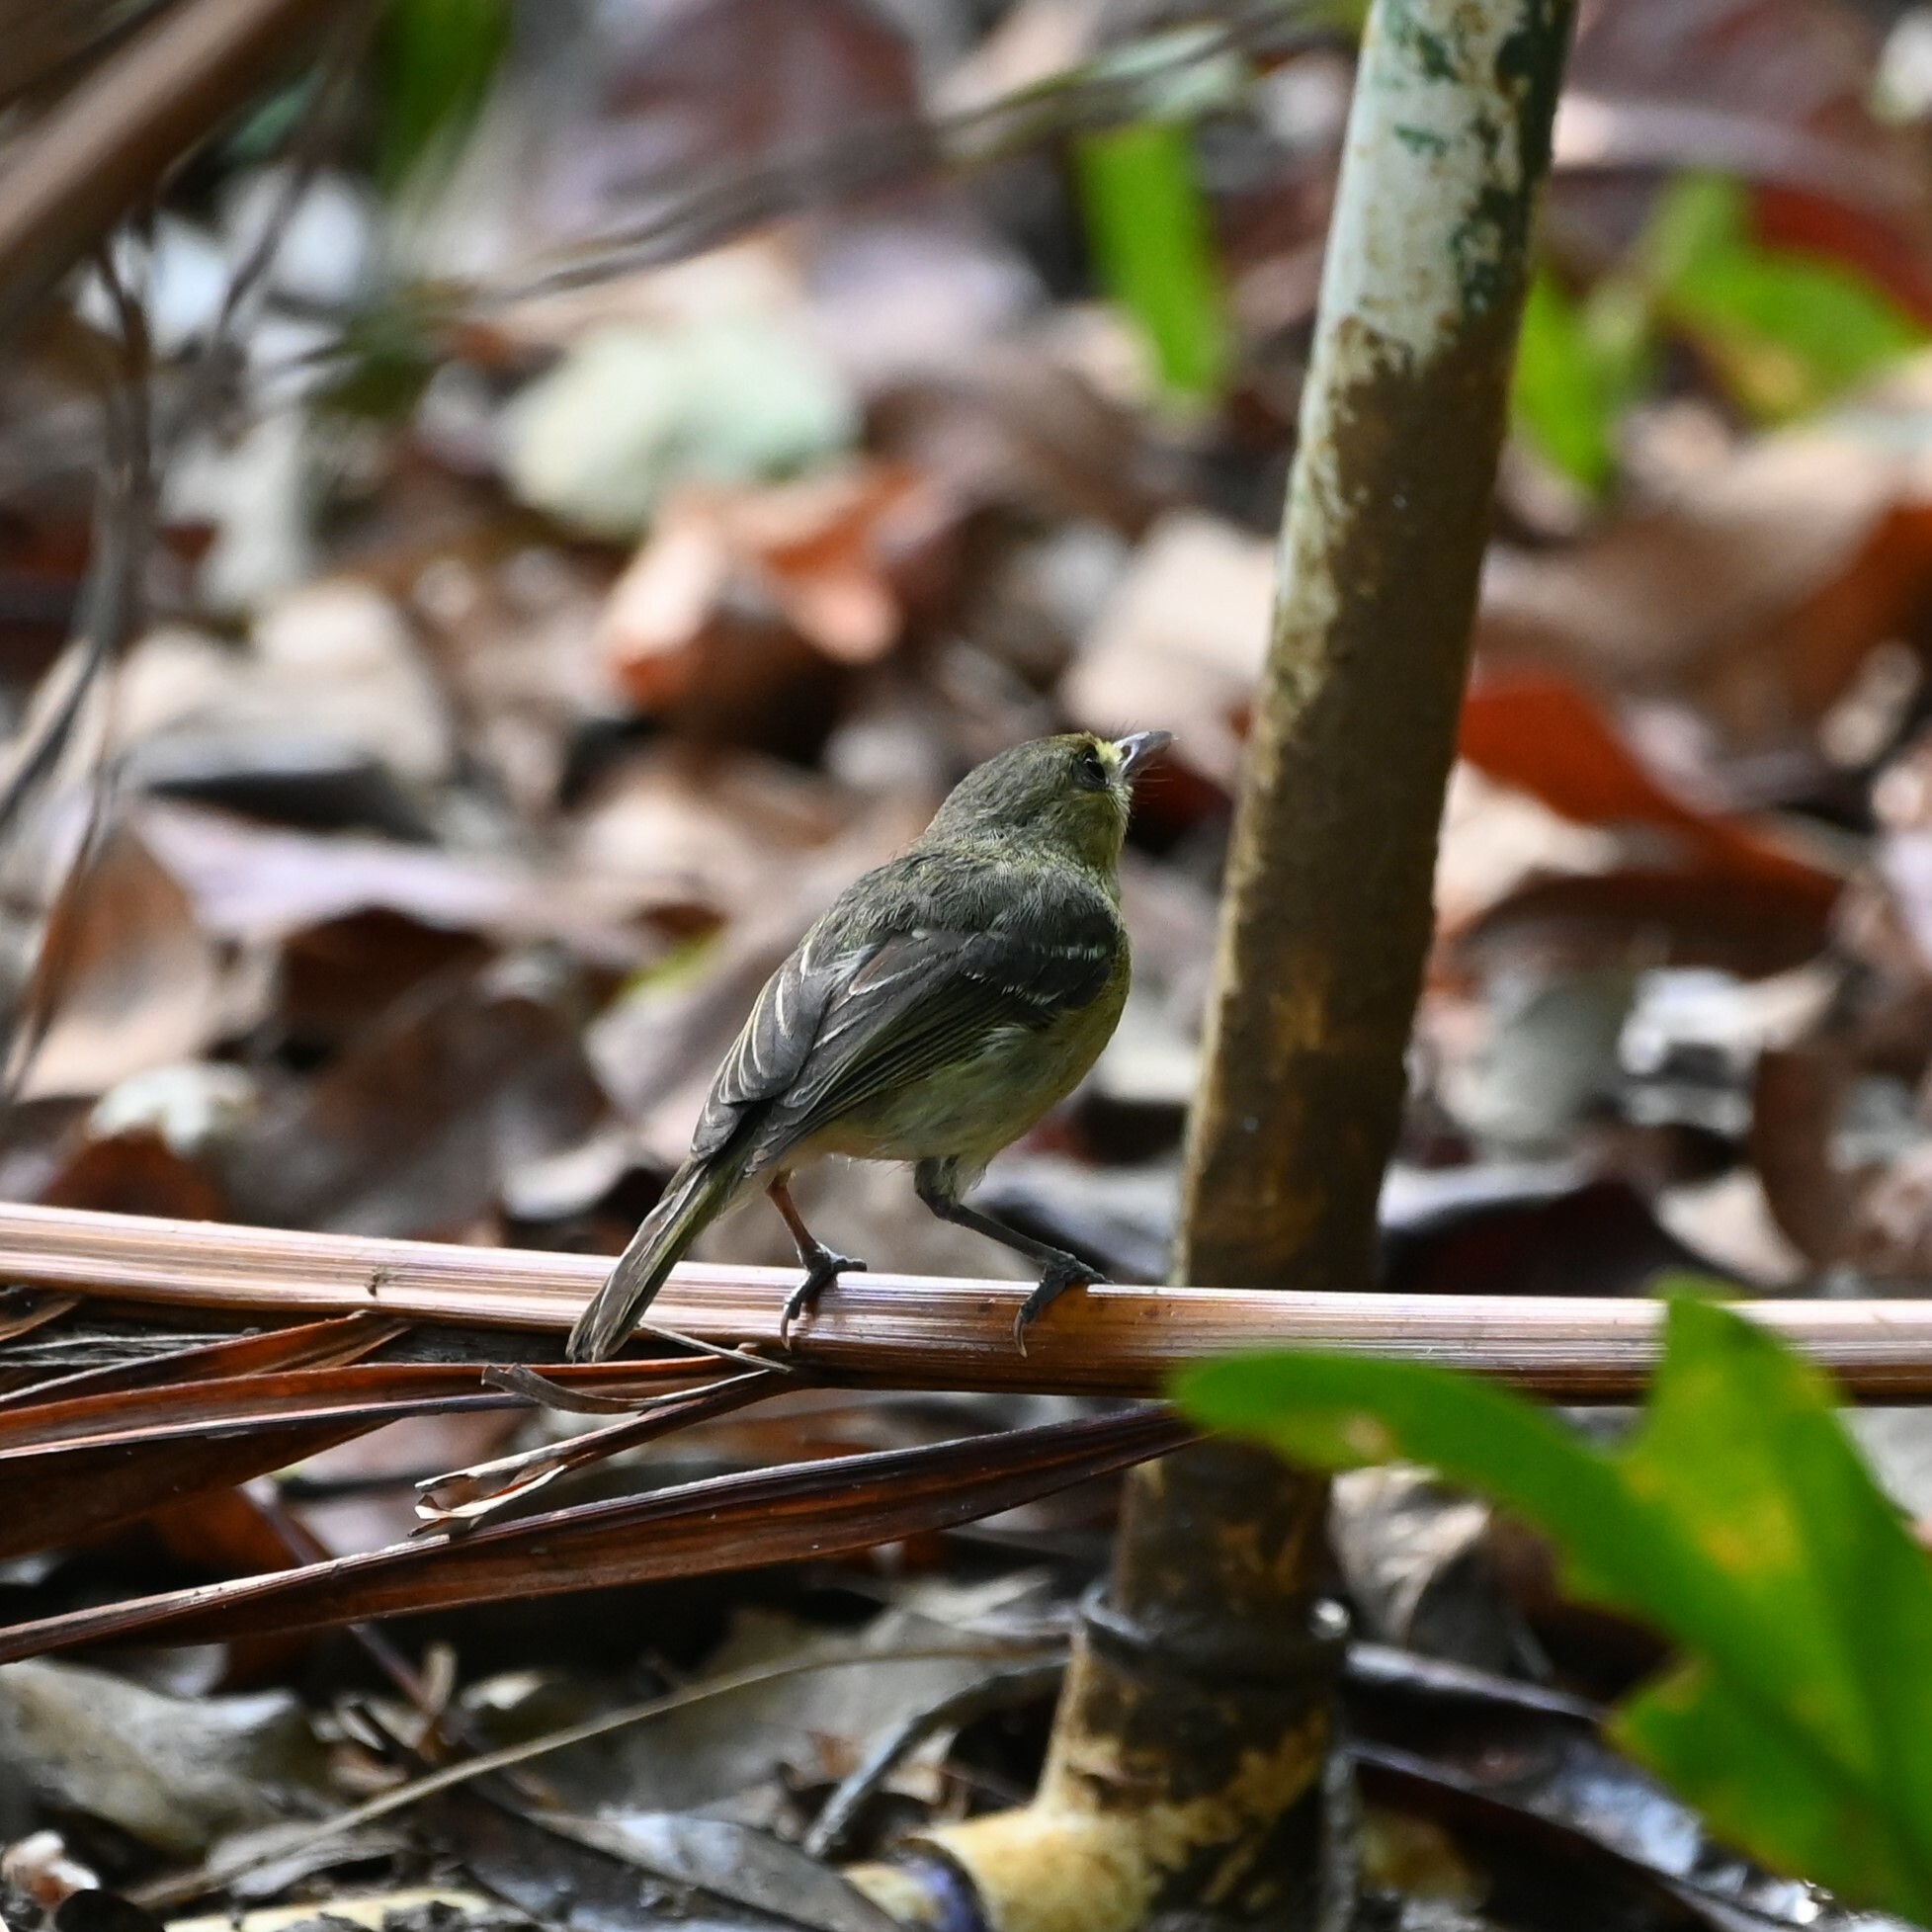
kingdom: Animalia
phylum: Chordata
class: Aves
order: Passeriformes
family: Vireonidae
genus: Vireo
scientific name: Vireo pallens
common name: Mangrove vireo
